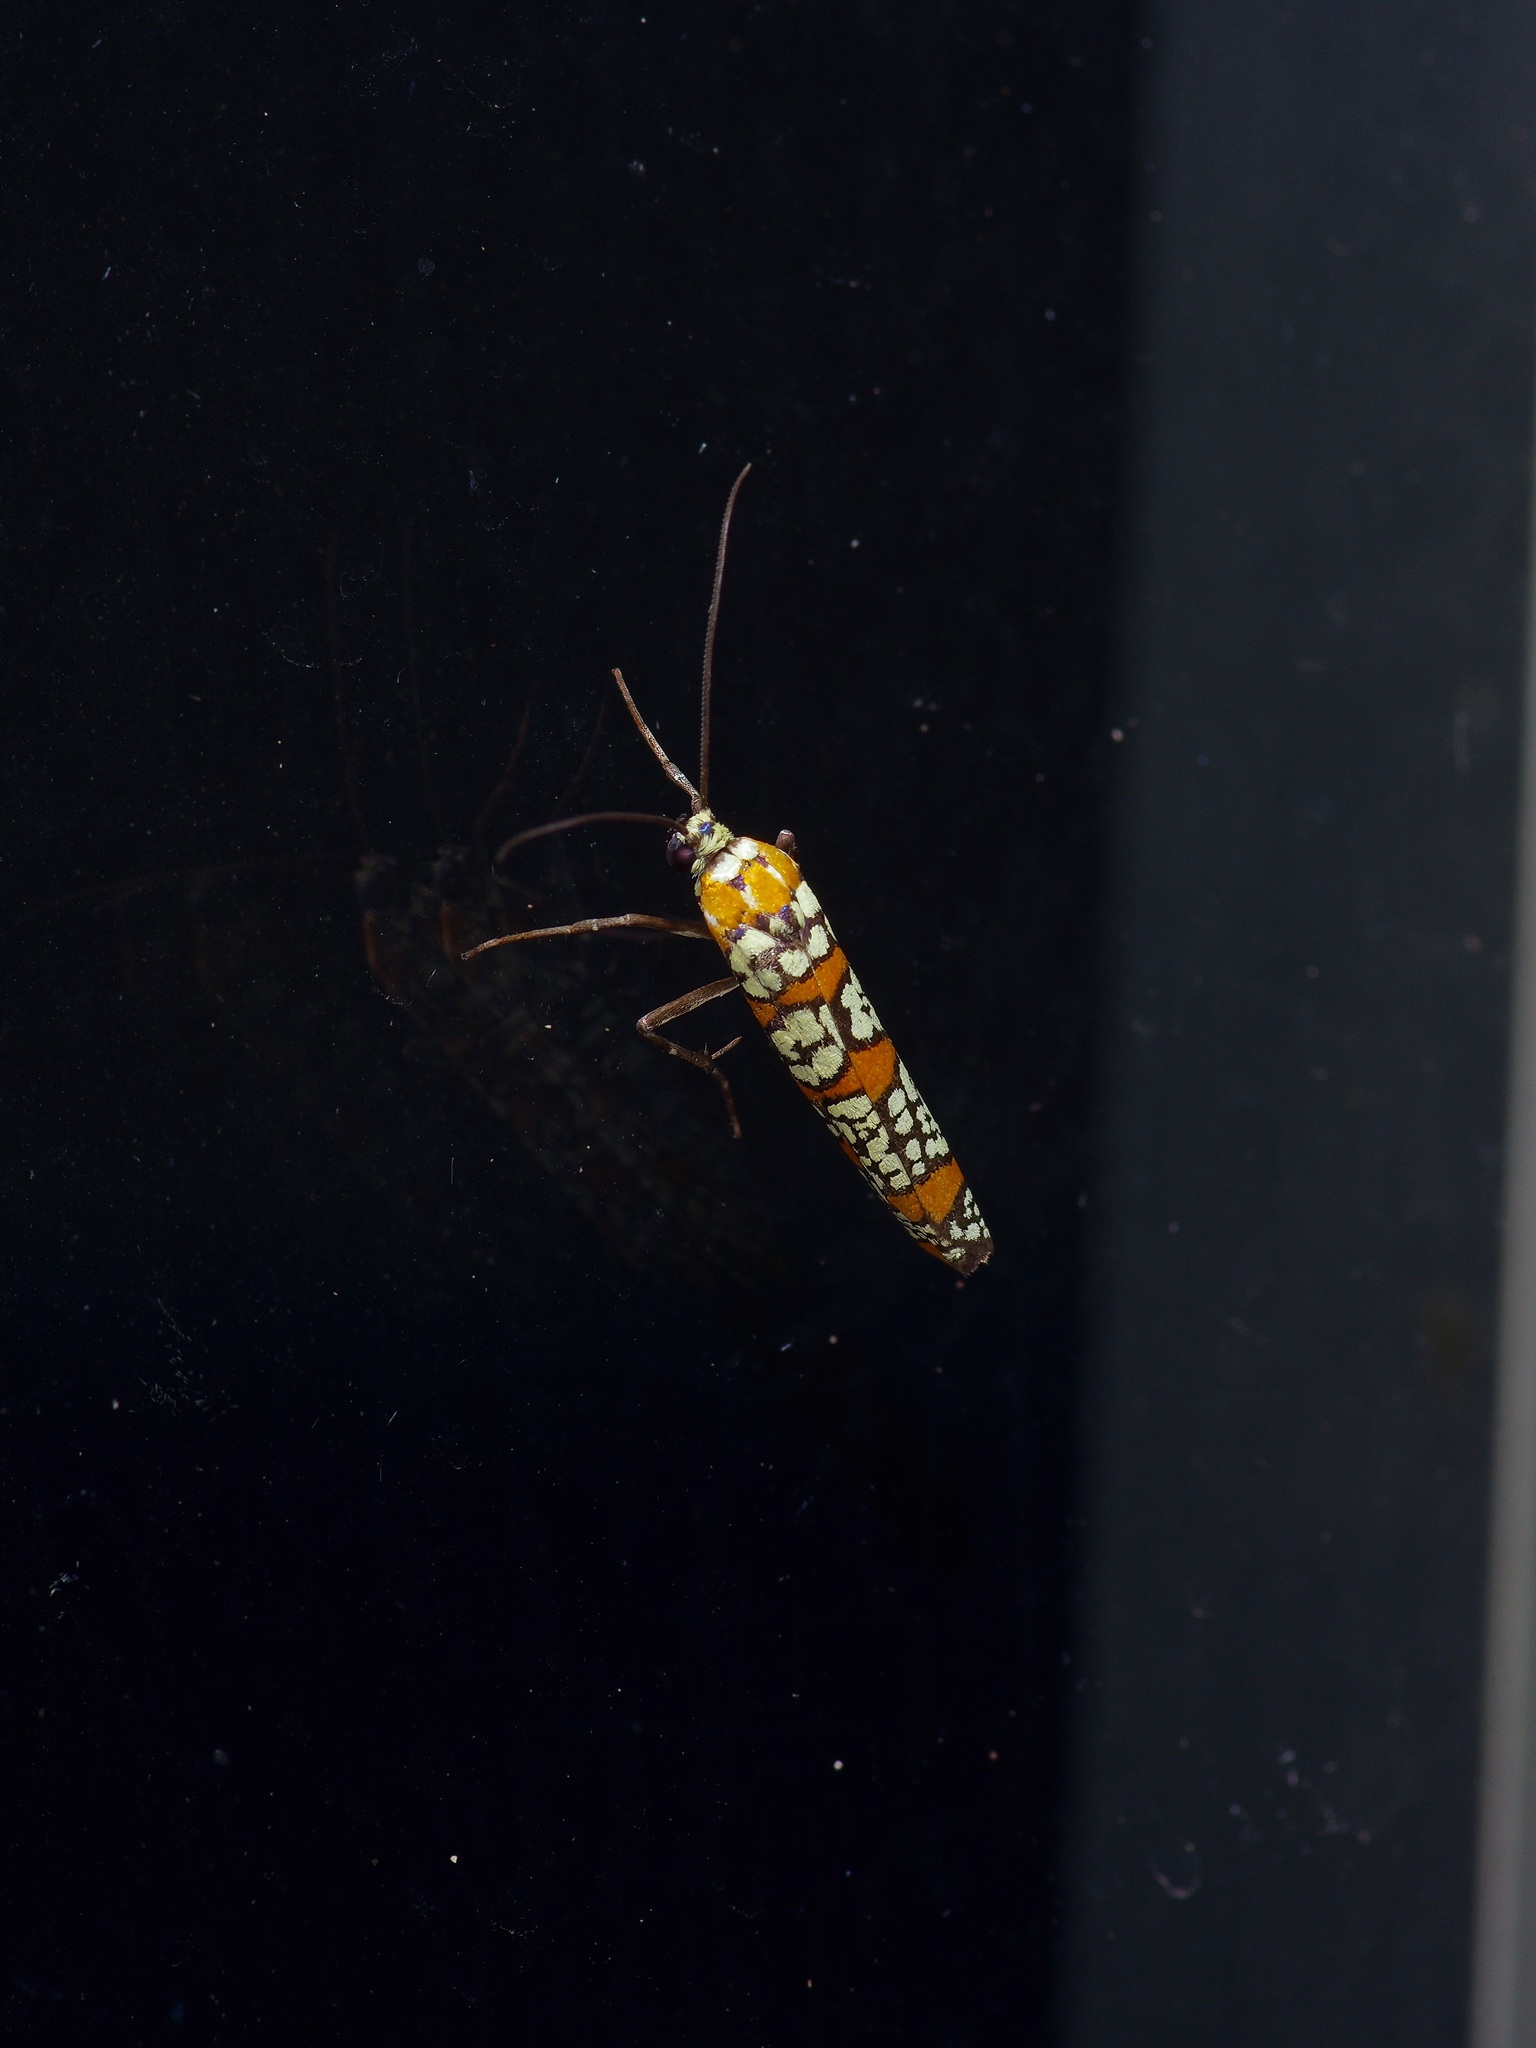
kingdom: Animalia
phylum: Arthropoda
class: Insecta
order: Lepidoptera
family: Attevidae
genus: Atteva
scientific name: Atteva punctella
